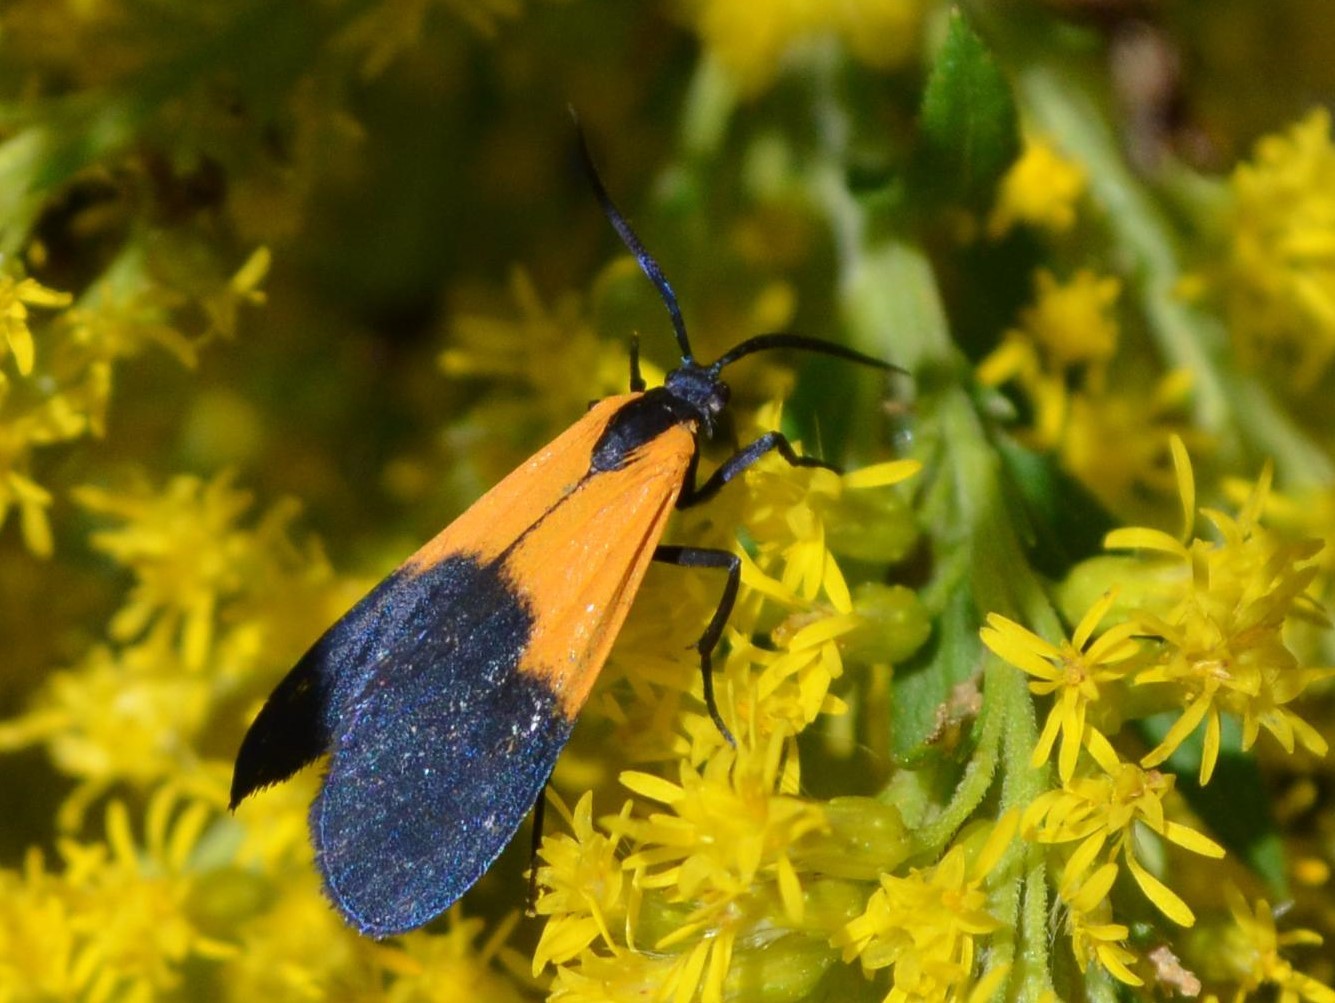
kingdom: Animalia
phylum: Arthropoda
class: Insecta
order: Lepidoptera
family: Erebidae
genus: Lycomorpha
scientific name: Lycomorpha pholus
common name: Black-and-yellow lichen moth
